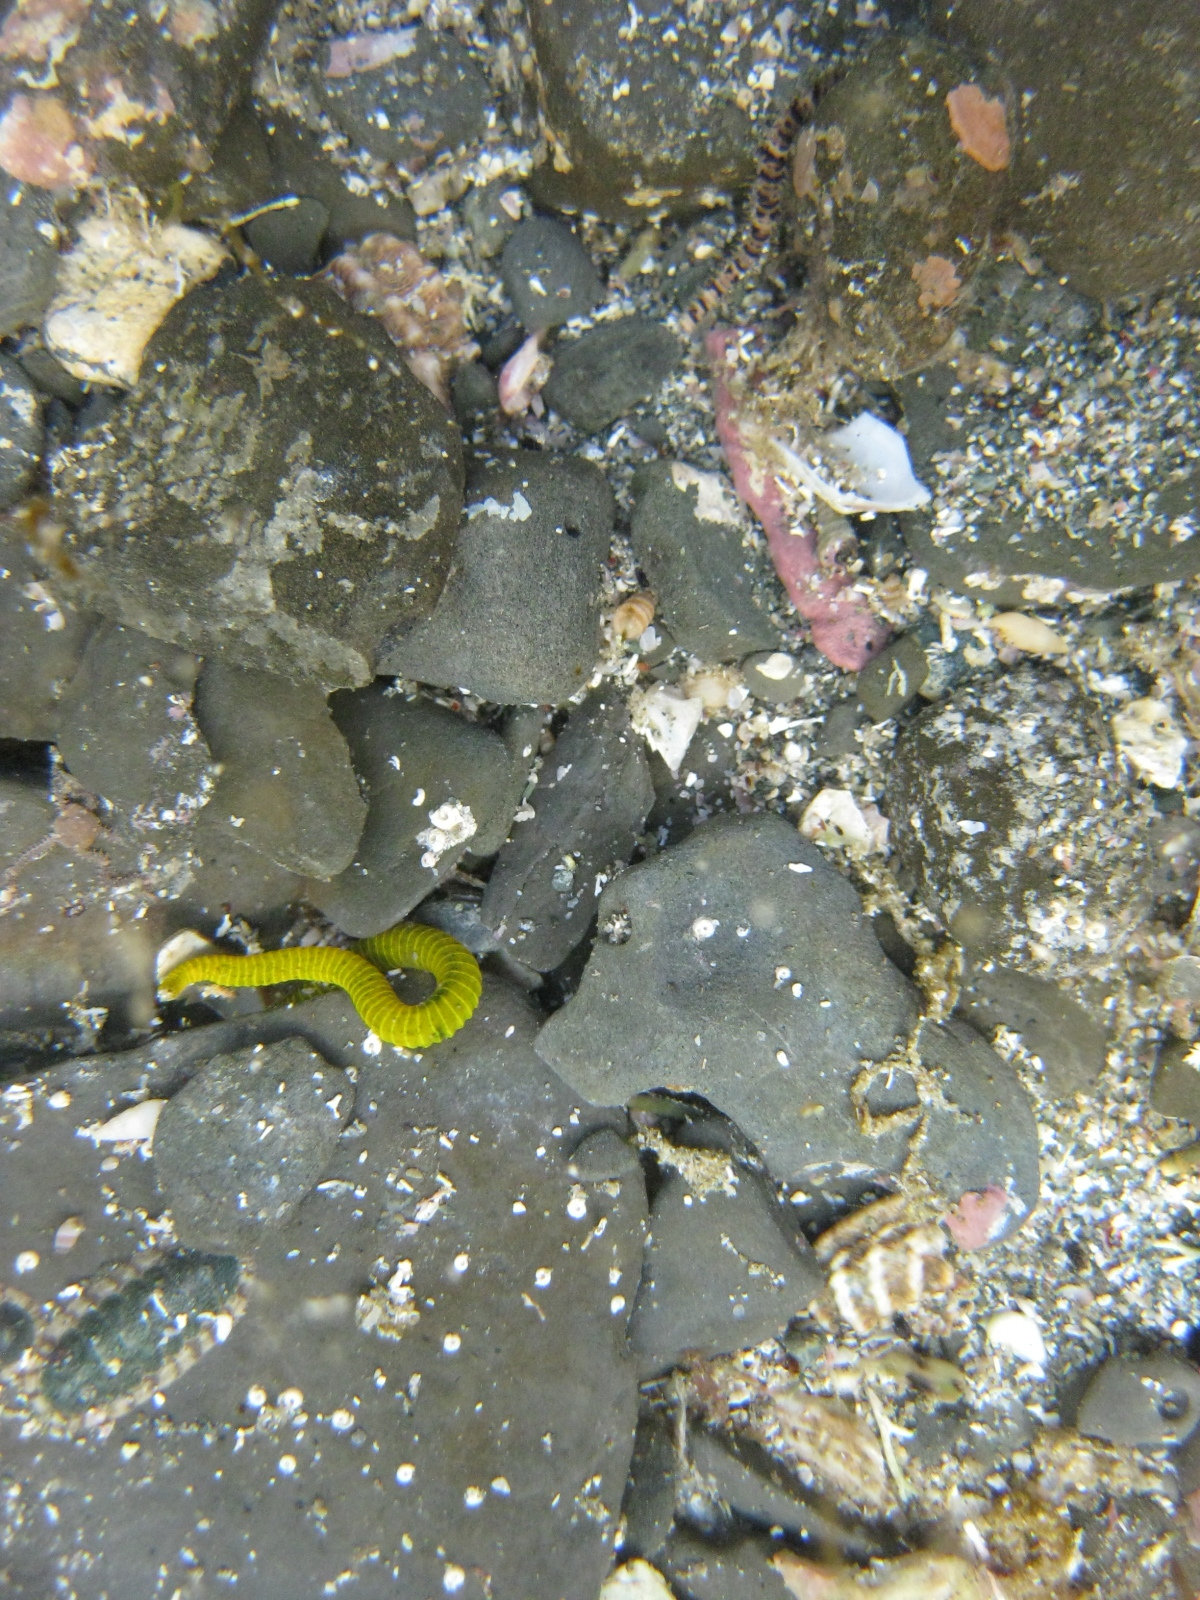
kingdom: Animalia
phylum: Annelida
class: Polychaeta
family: Acrocirridae
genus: Acrocirrus
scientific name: Acrocirrus
